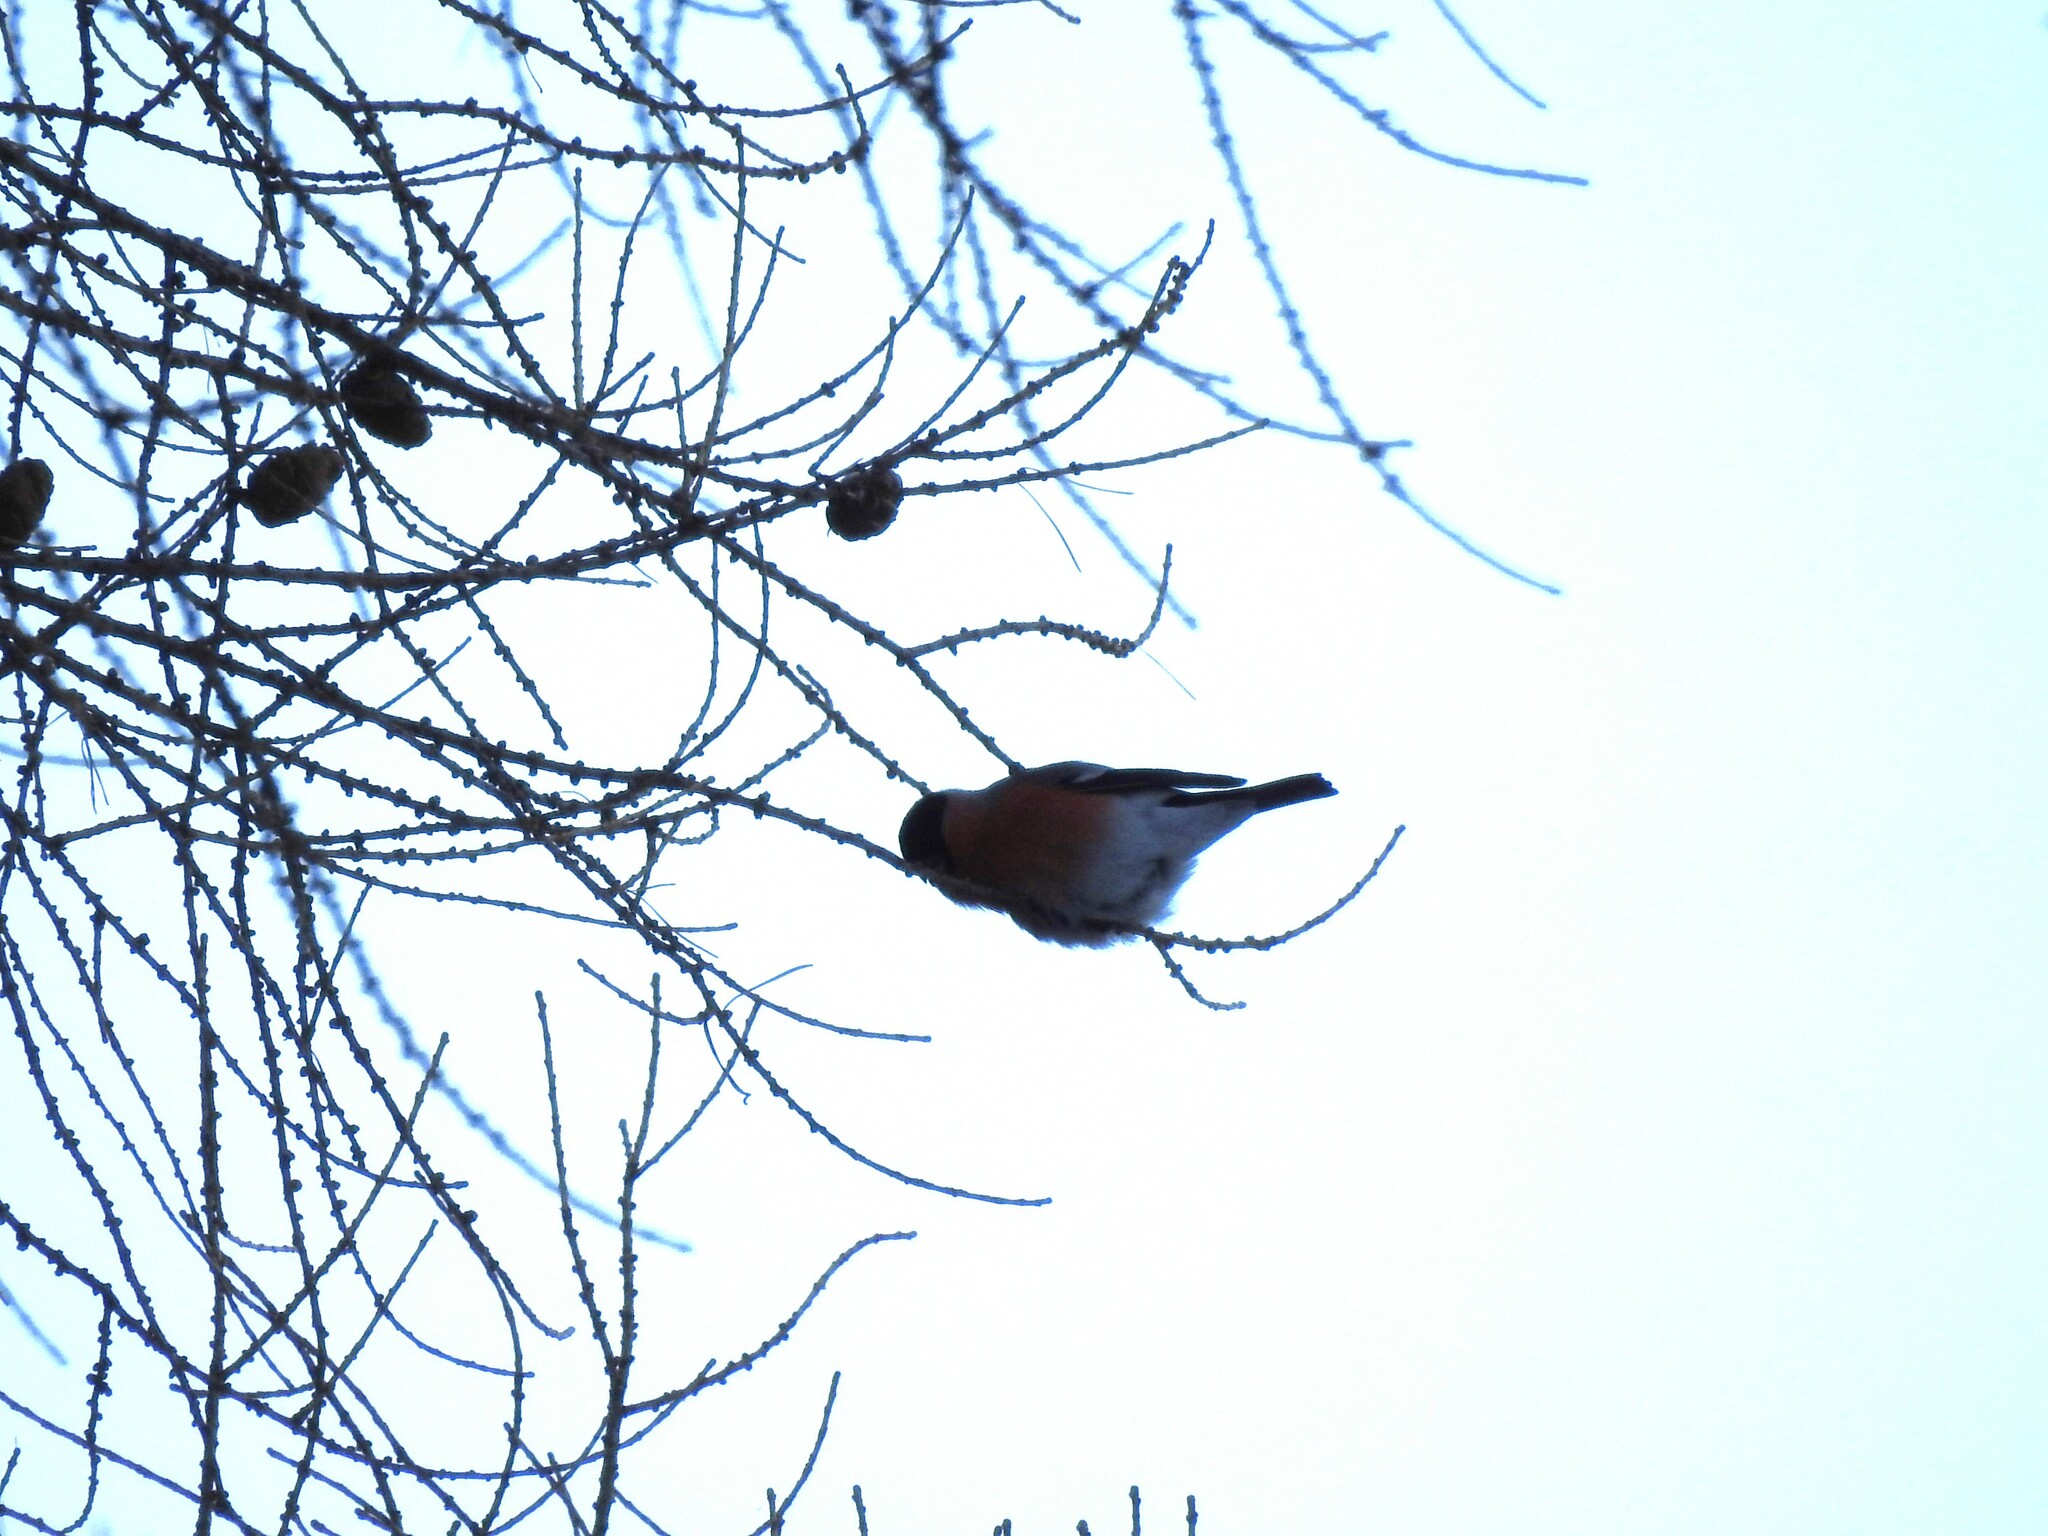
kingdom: Animalia
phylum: Chordata
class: Aves
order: Passeriformes
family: Fringillidae
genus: Pyrrhula
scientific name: Pyrrhula pyrrhula
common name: Eurasian bullfinch
